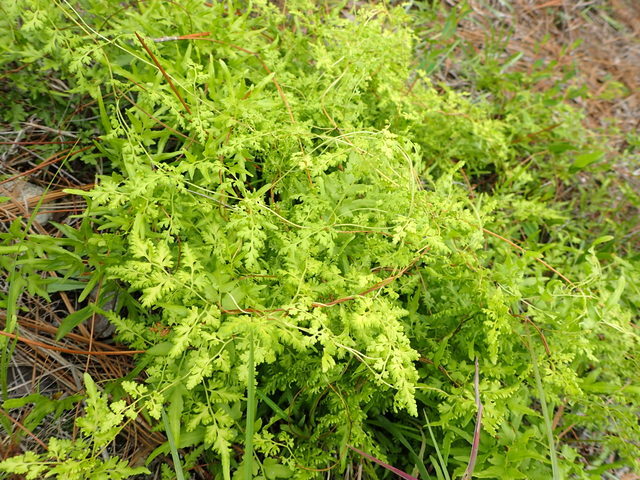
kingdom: Plantae
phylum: Tracheophyta
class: Polypodiopsida
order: Schizaeales
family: Lygodiaceae
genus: Lygodium
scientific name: Lygodium japonicum
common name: Japanese climbing fern
